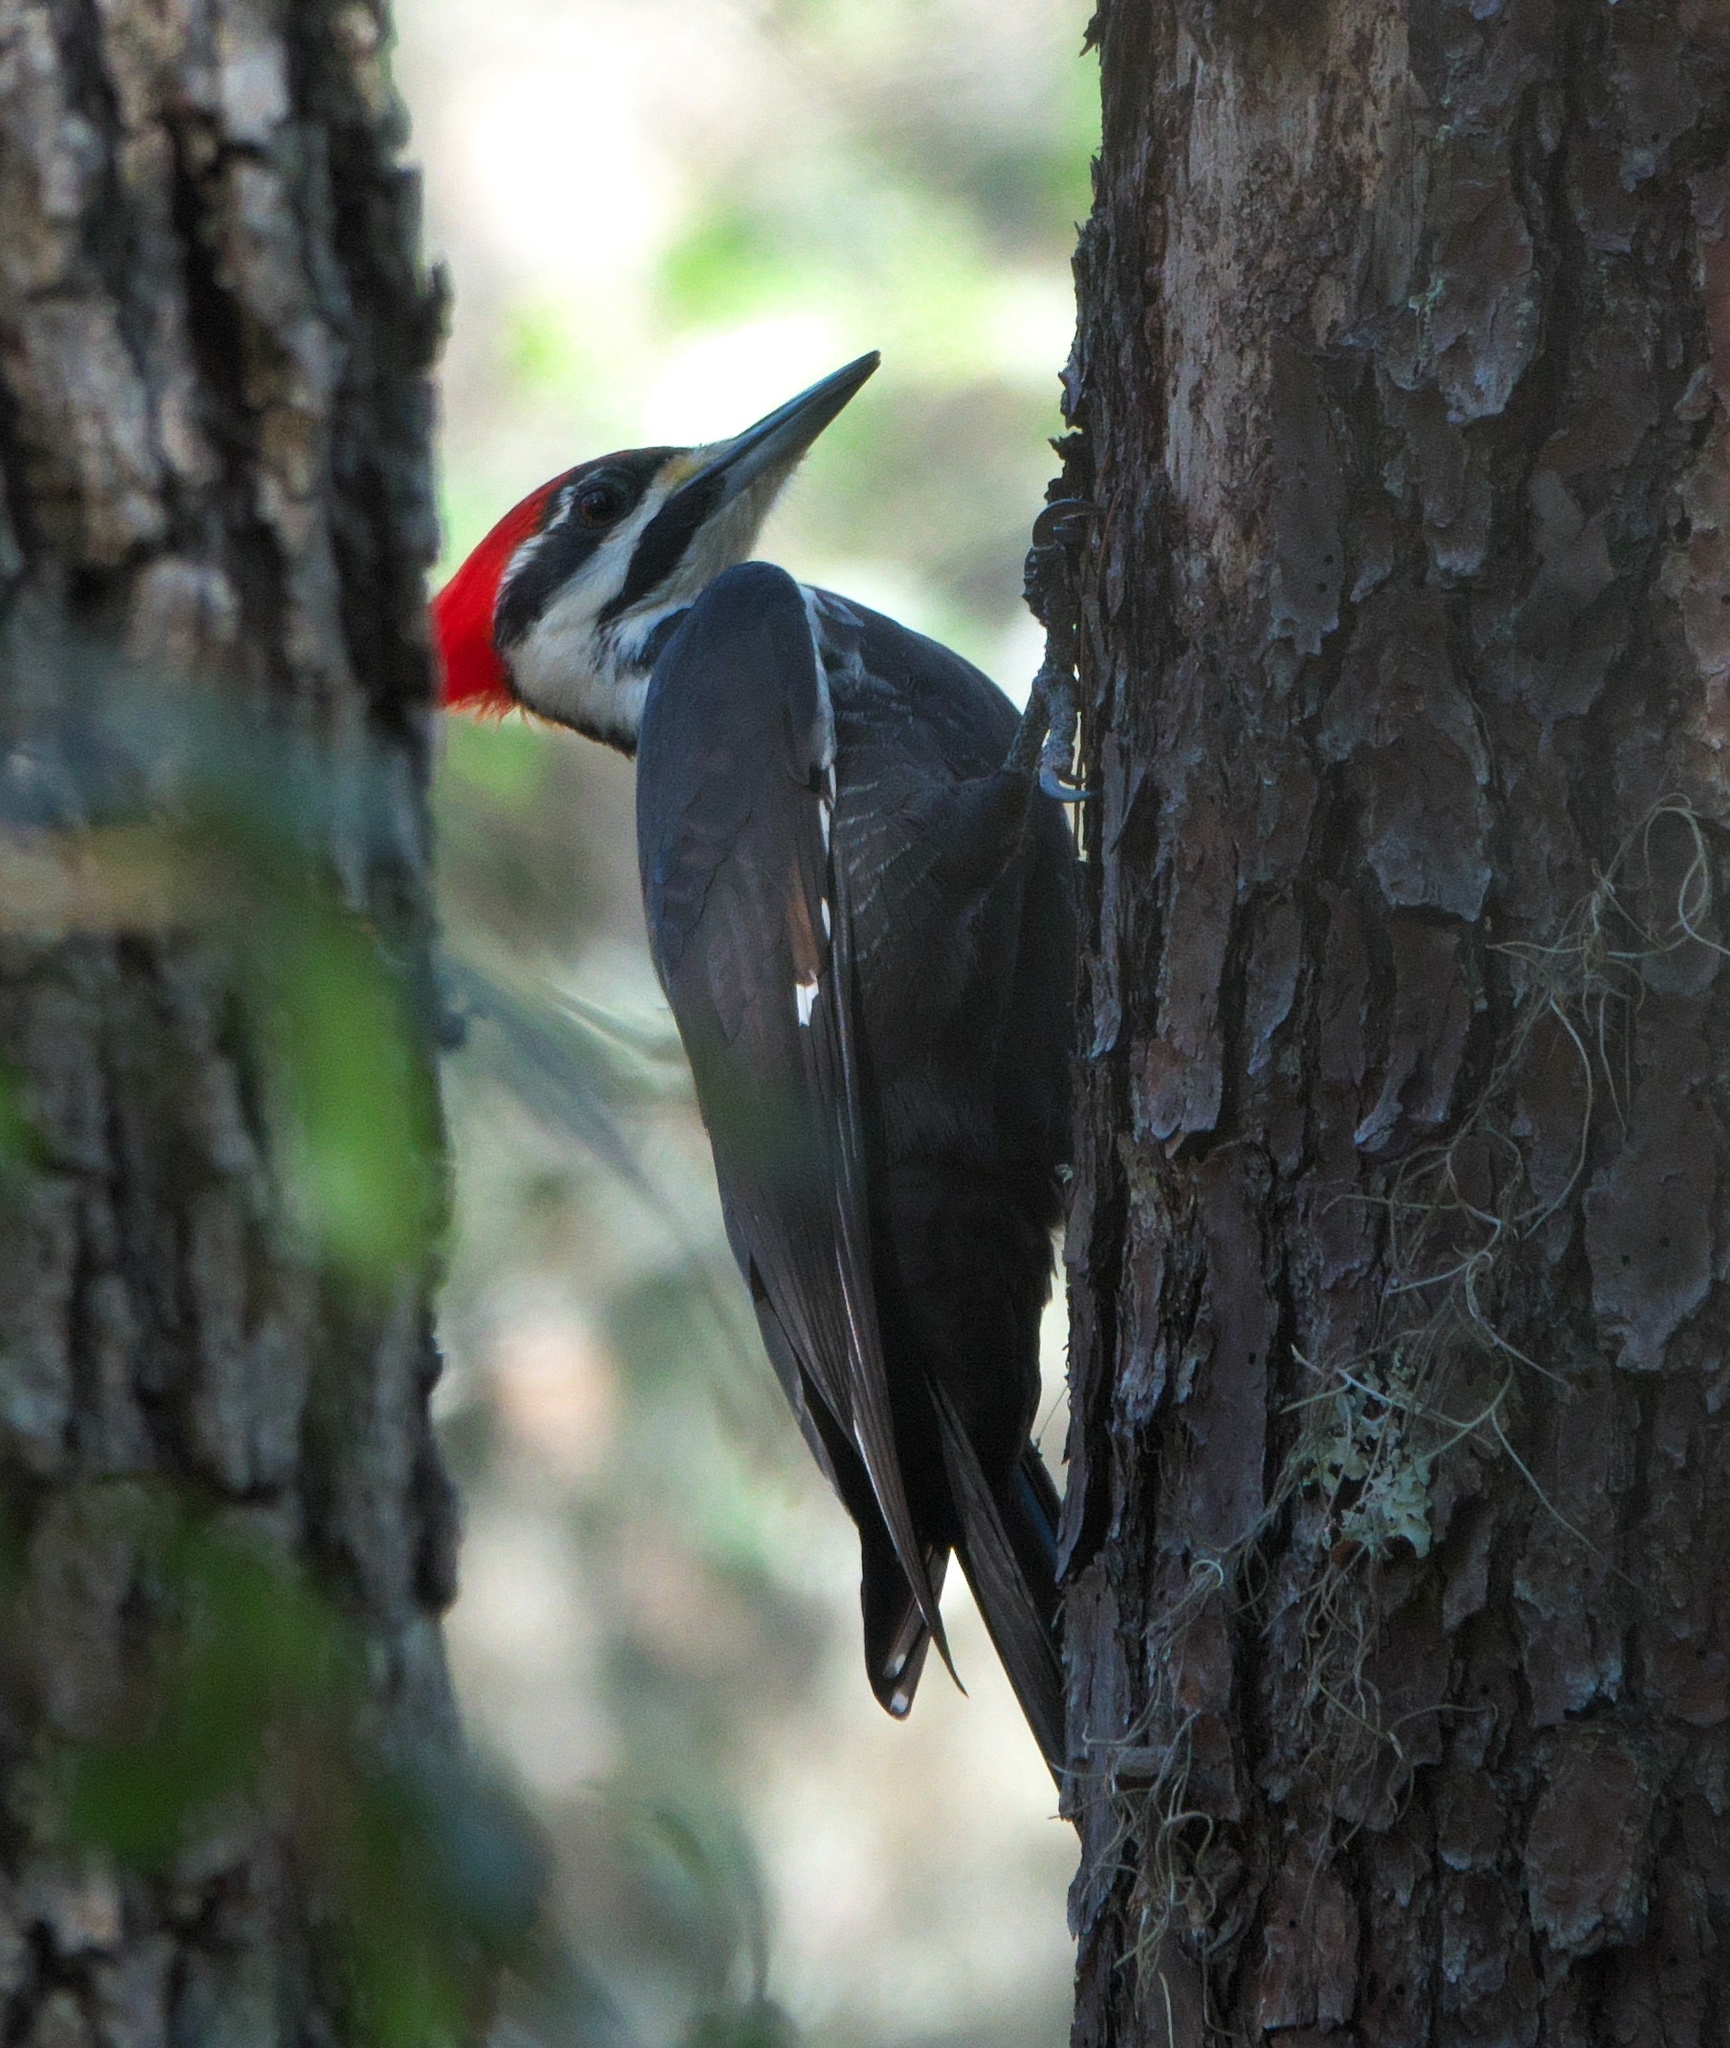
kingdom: Animalia
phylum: Chordata
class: Aves
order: Piciformes
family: Picidae
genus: Dryocopus
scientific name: Dryocopus pileatus
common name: Pileated woodpecker
